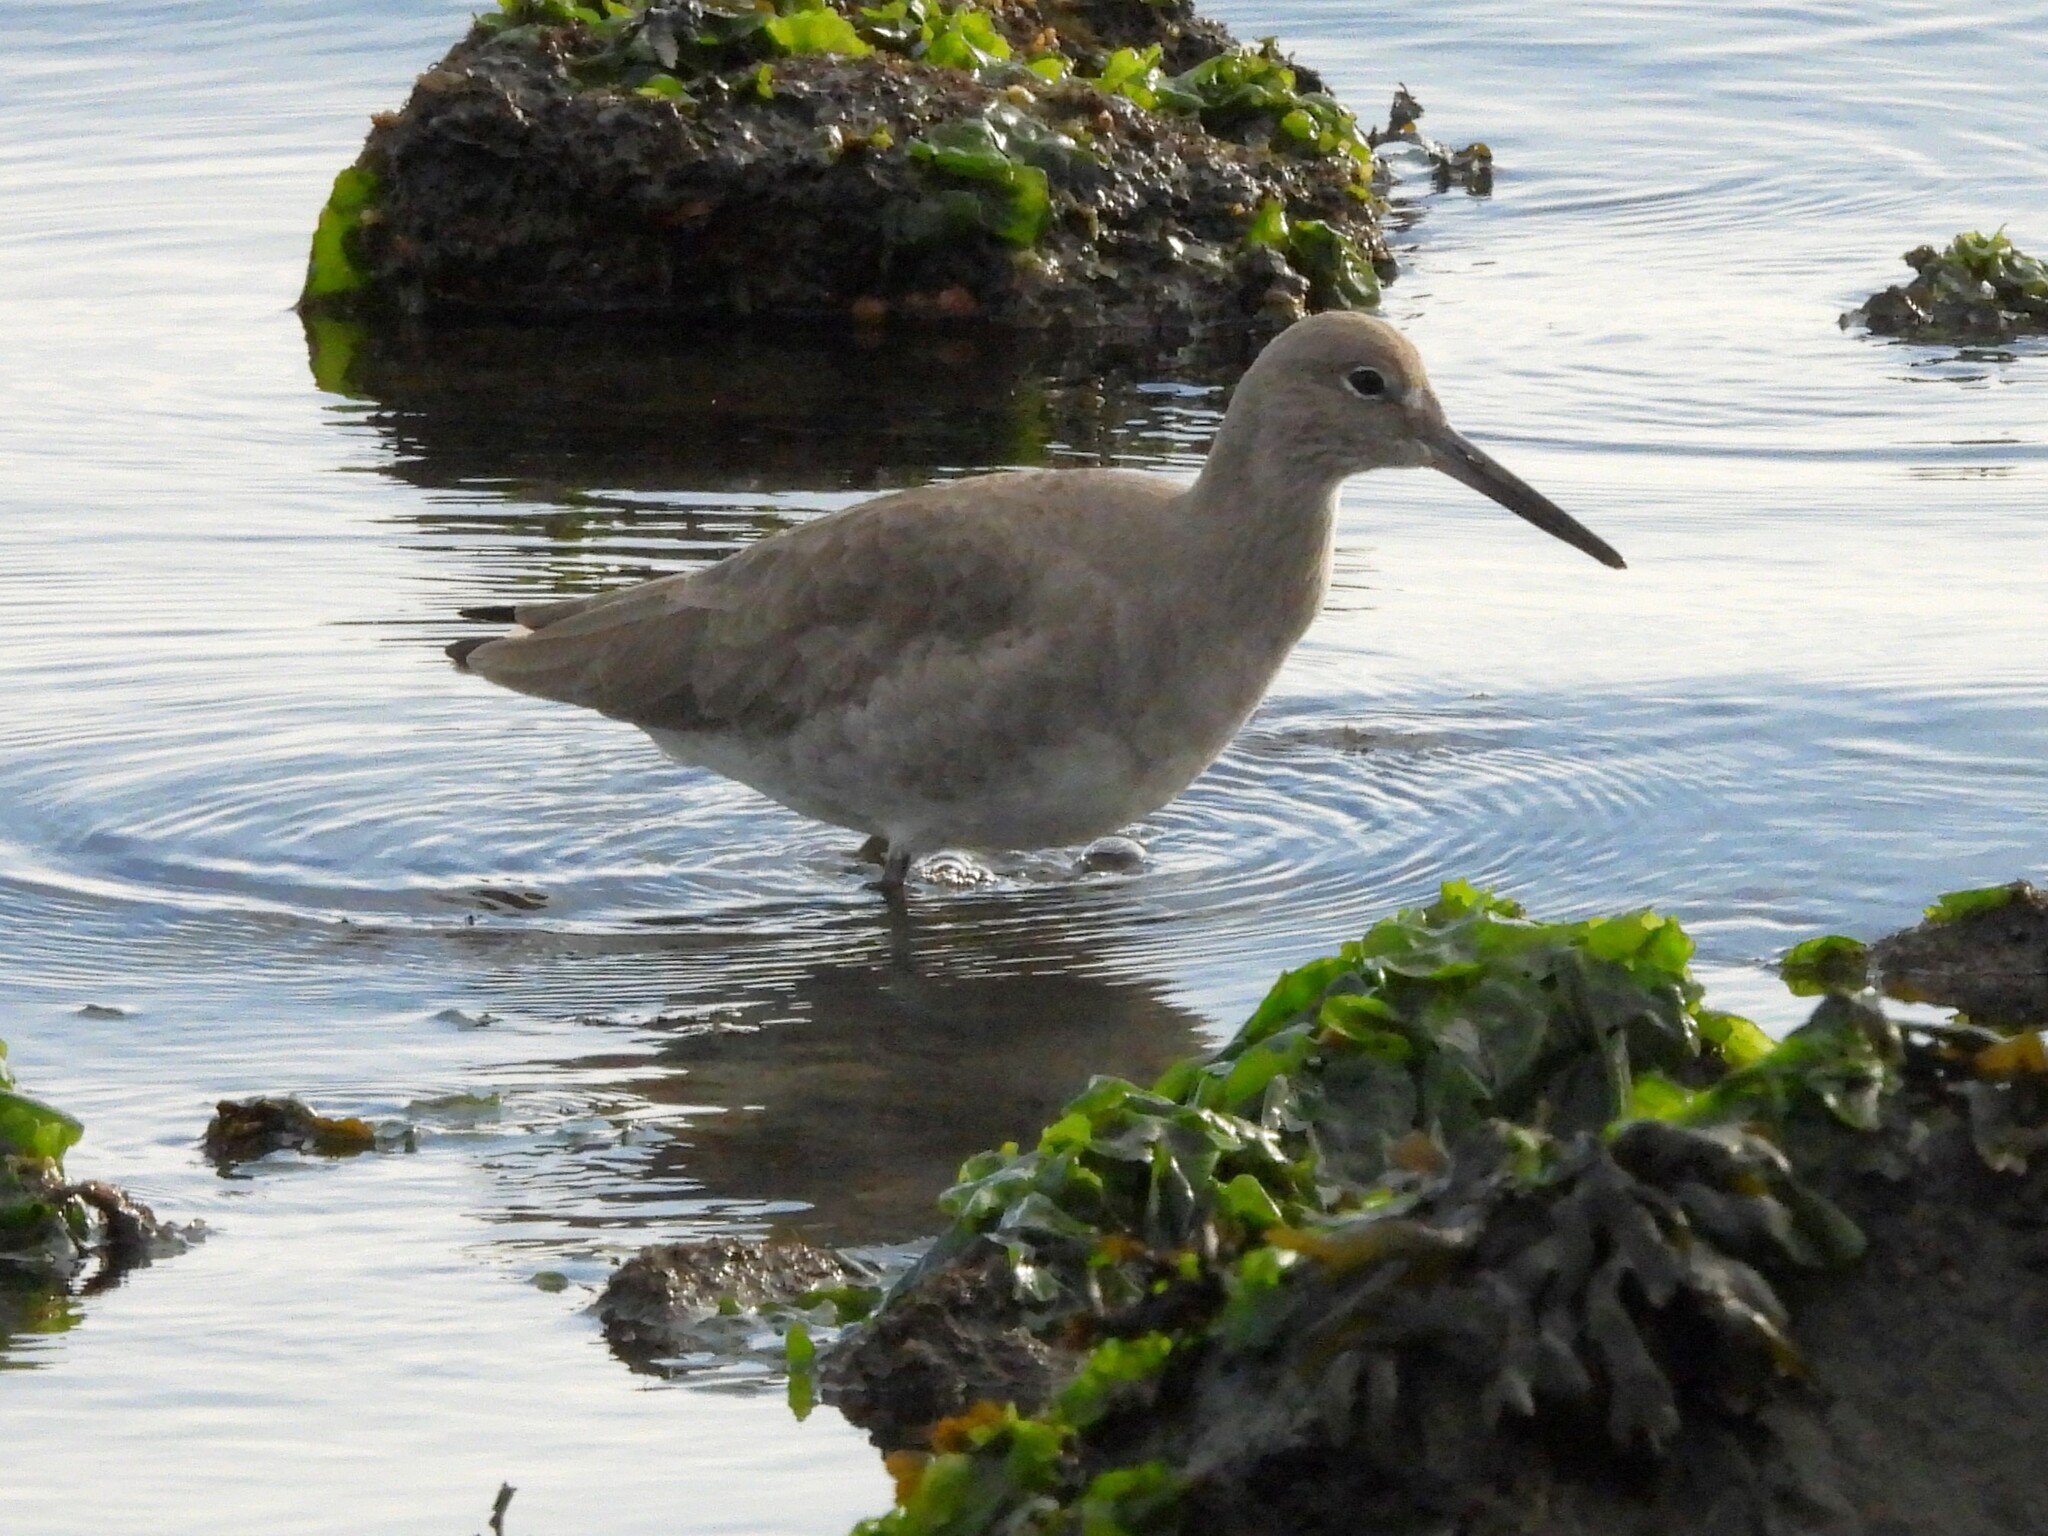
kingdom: Animalia
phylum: Chordata
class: Aves
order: Charadriiformes
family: Scolopacidae
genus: Tringa
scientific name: Tringa semipalmata
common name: Willet
